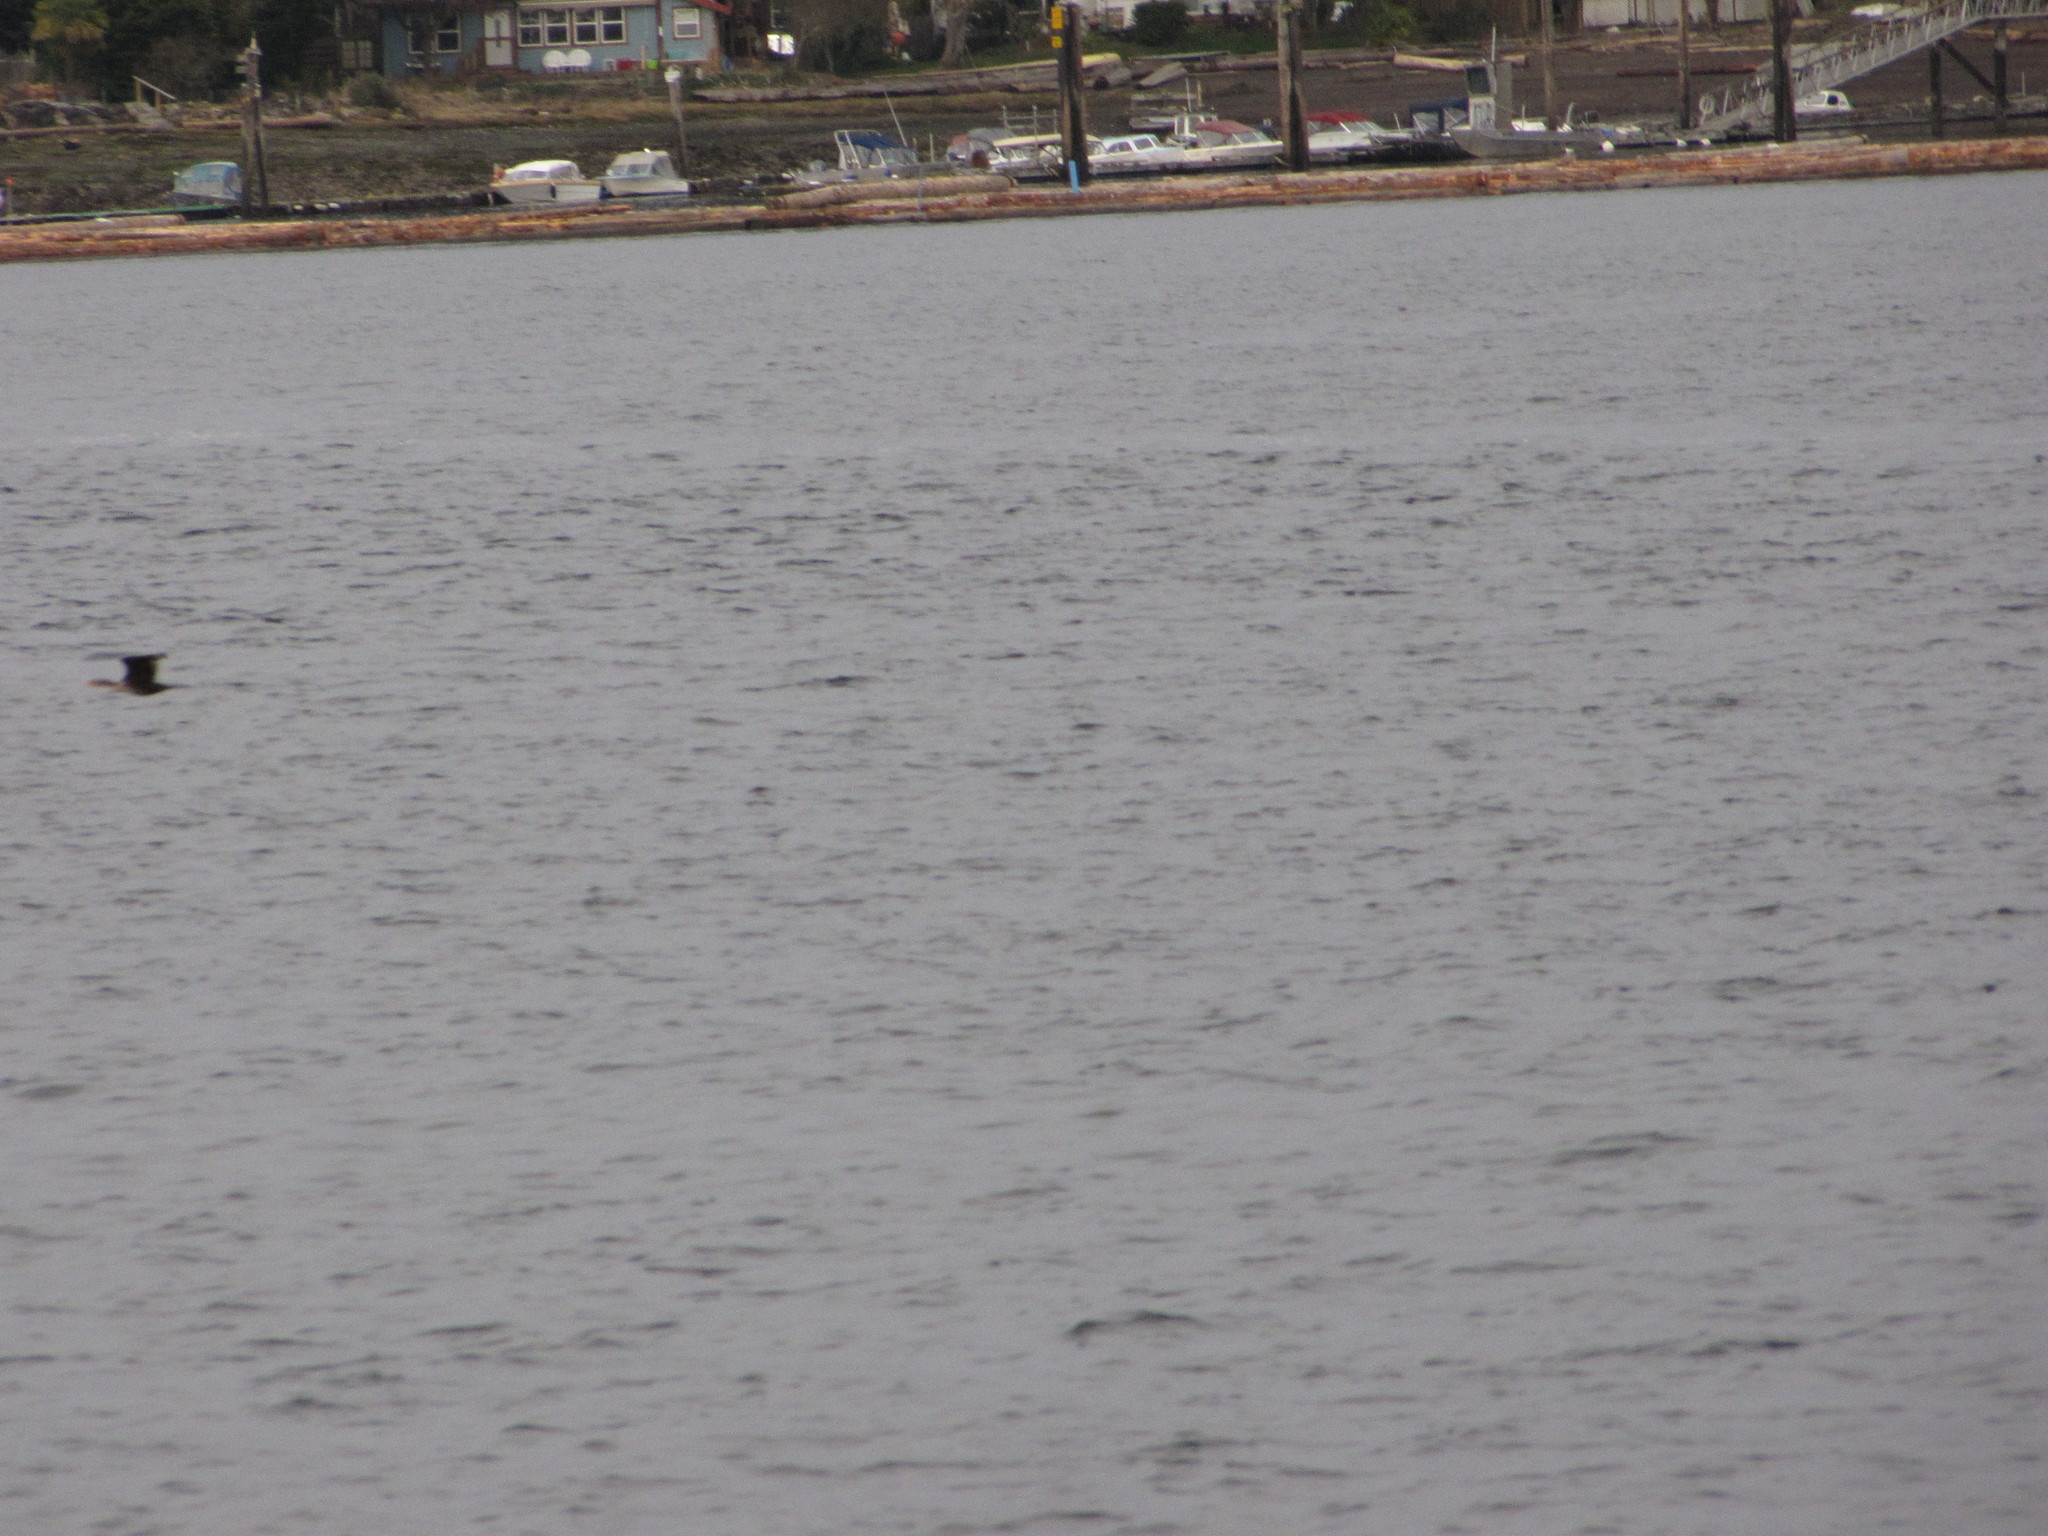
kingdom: Animalia
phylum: Chordata
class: Aves
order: Suliformes
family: Phalacrocoracidae
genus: Phalacrocorax
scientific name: Phalacrocorax auritus
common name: Double-crested cormorant
